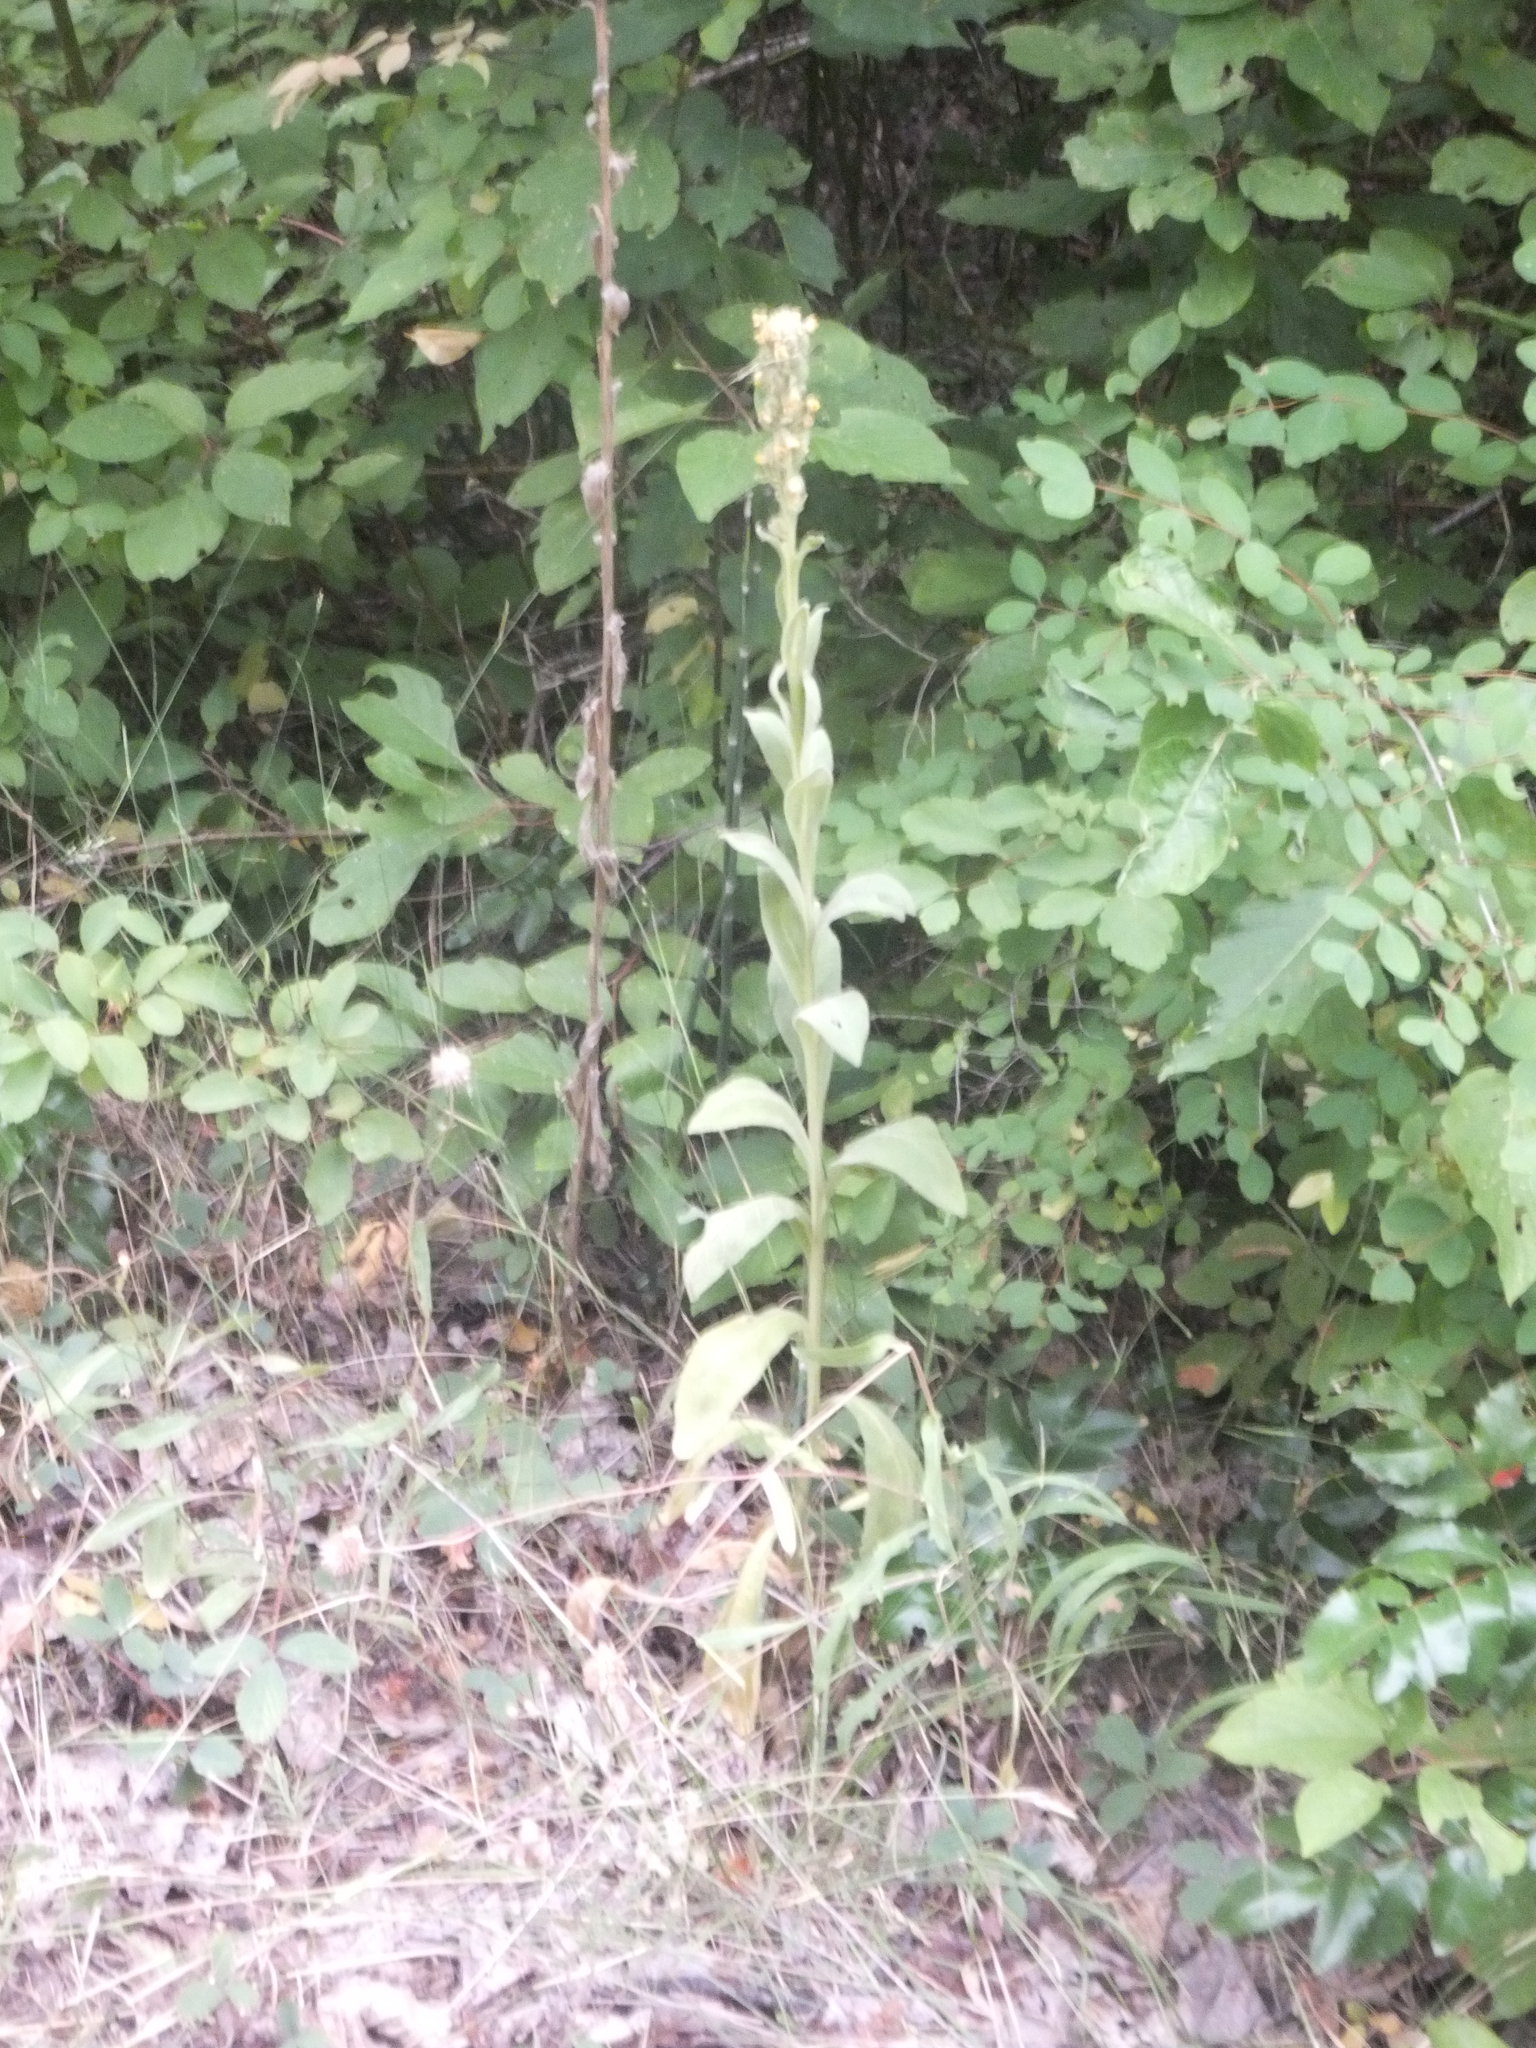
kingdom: Plantae
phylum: Tracheophyta
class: Magnoliopsida
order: Lamiales
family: Scrophulariaceae
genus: Verbascum
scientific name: Verbascum thapsus
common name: Common mullein
